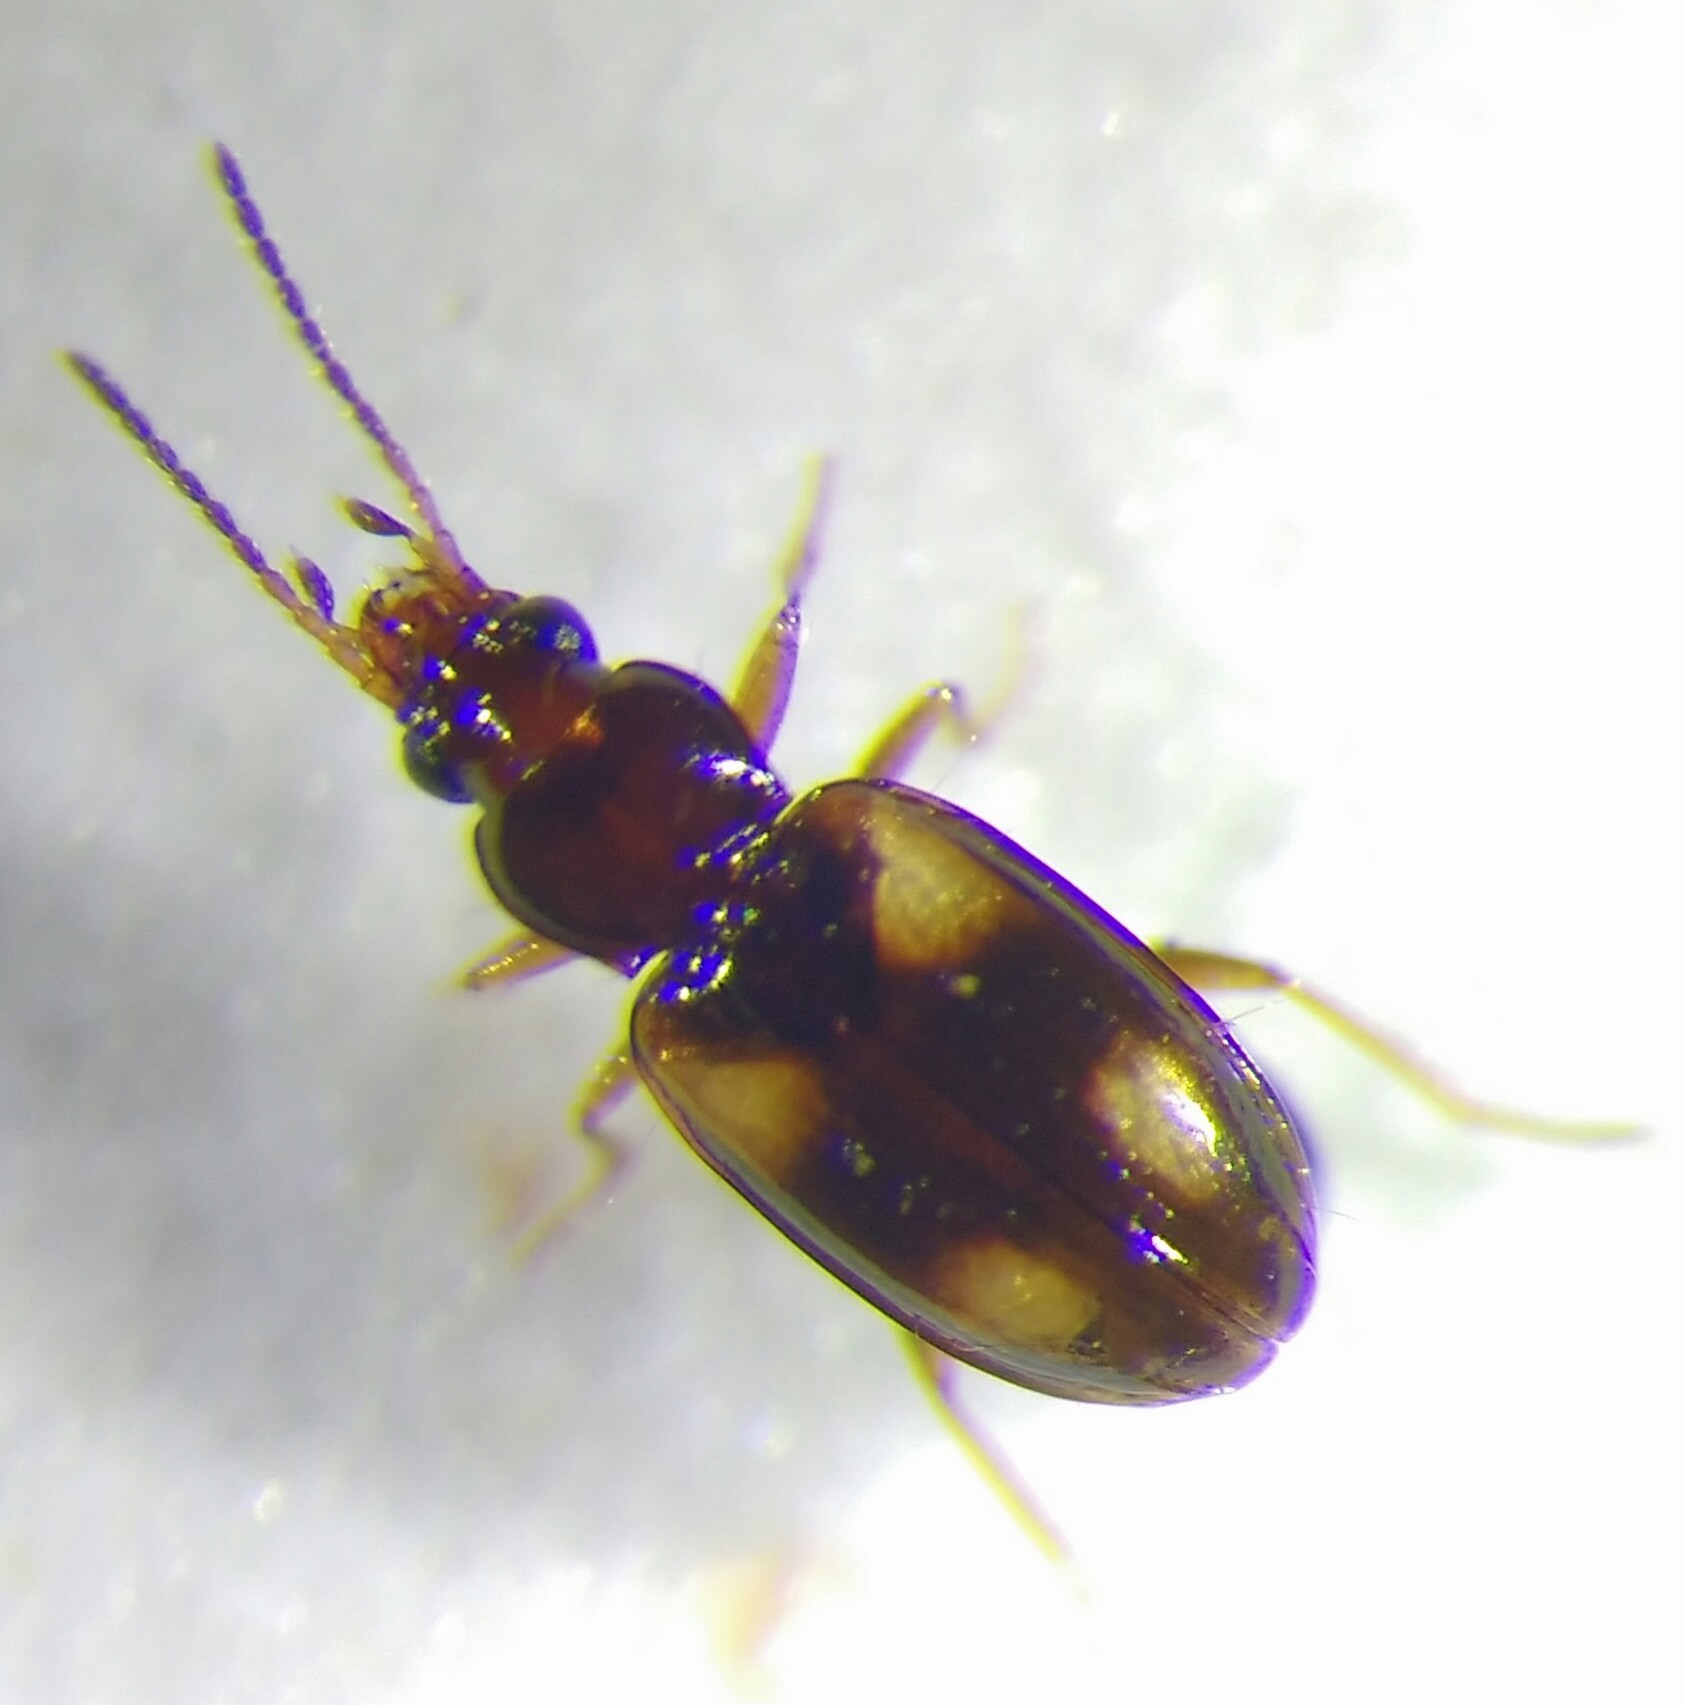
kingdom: Animalia
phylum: Arthropoda
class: Insecta
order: Coleoptera
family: Carabidae
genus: Elaphropus
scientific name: Elaphropus quadrisignatus
